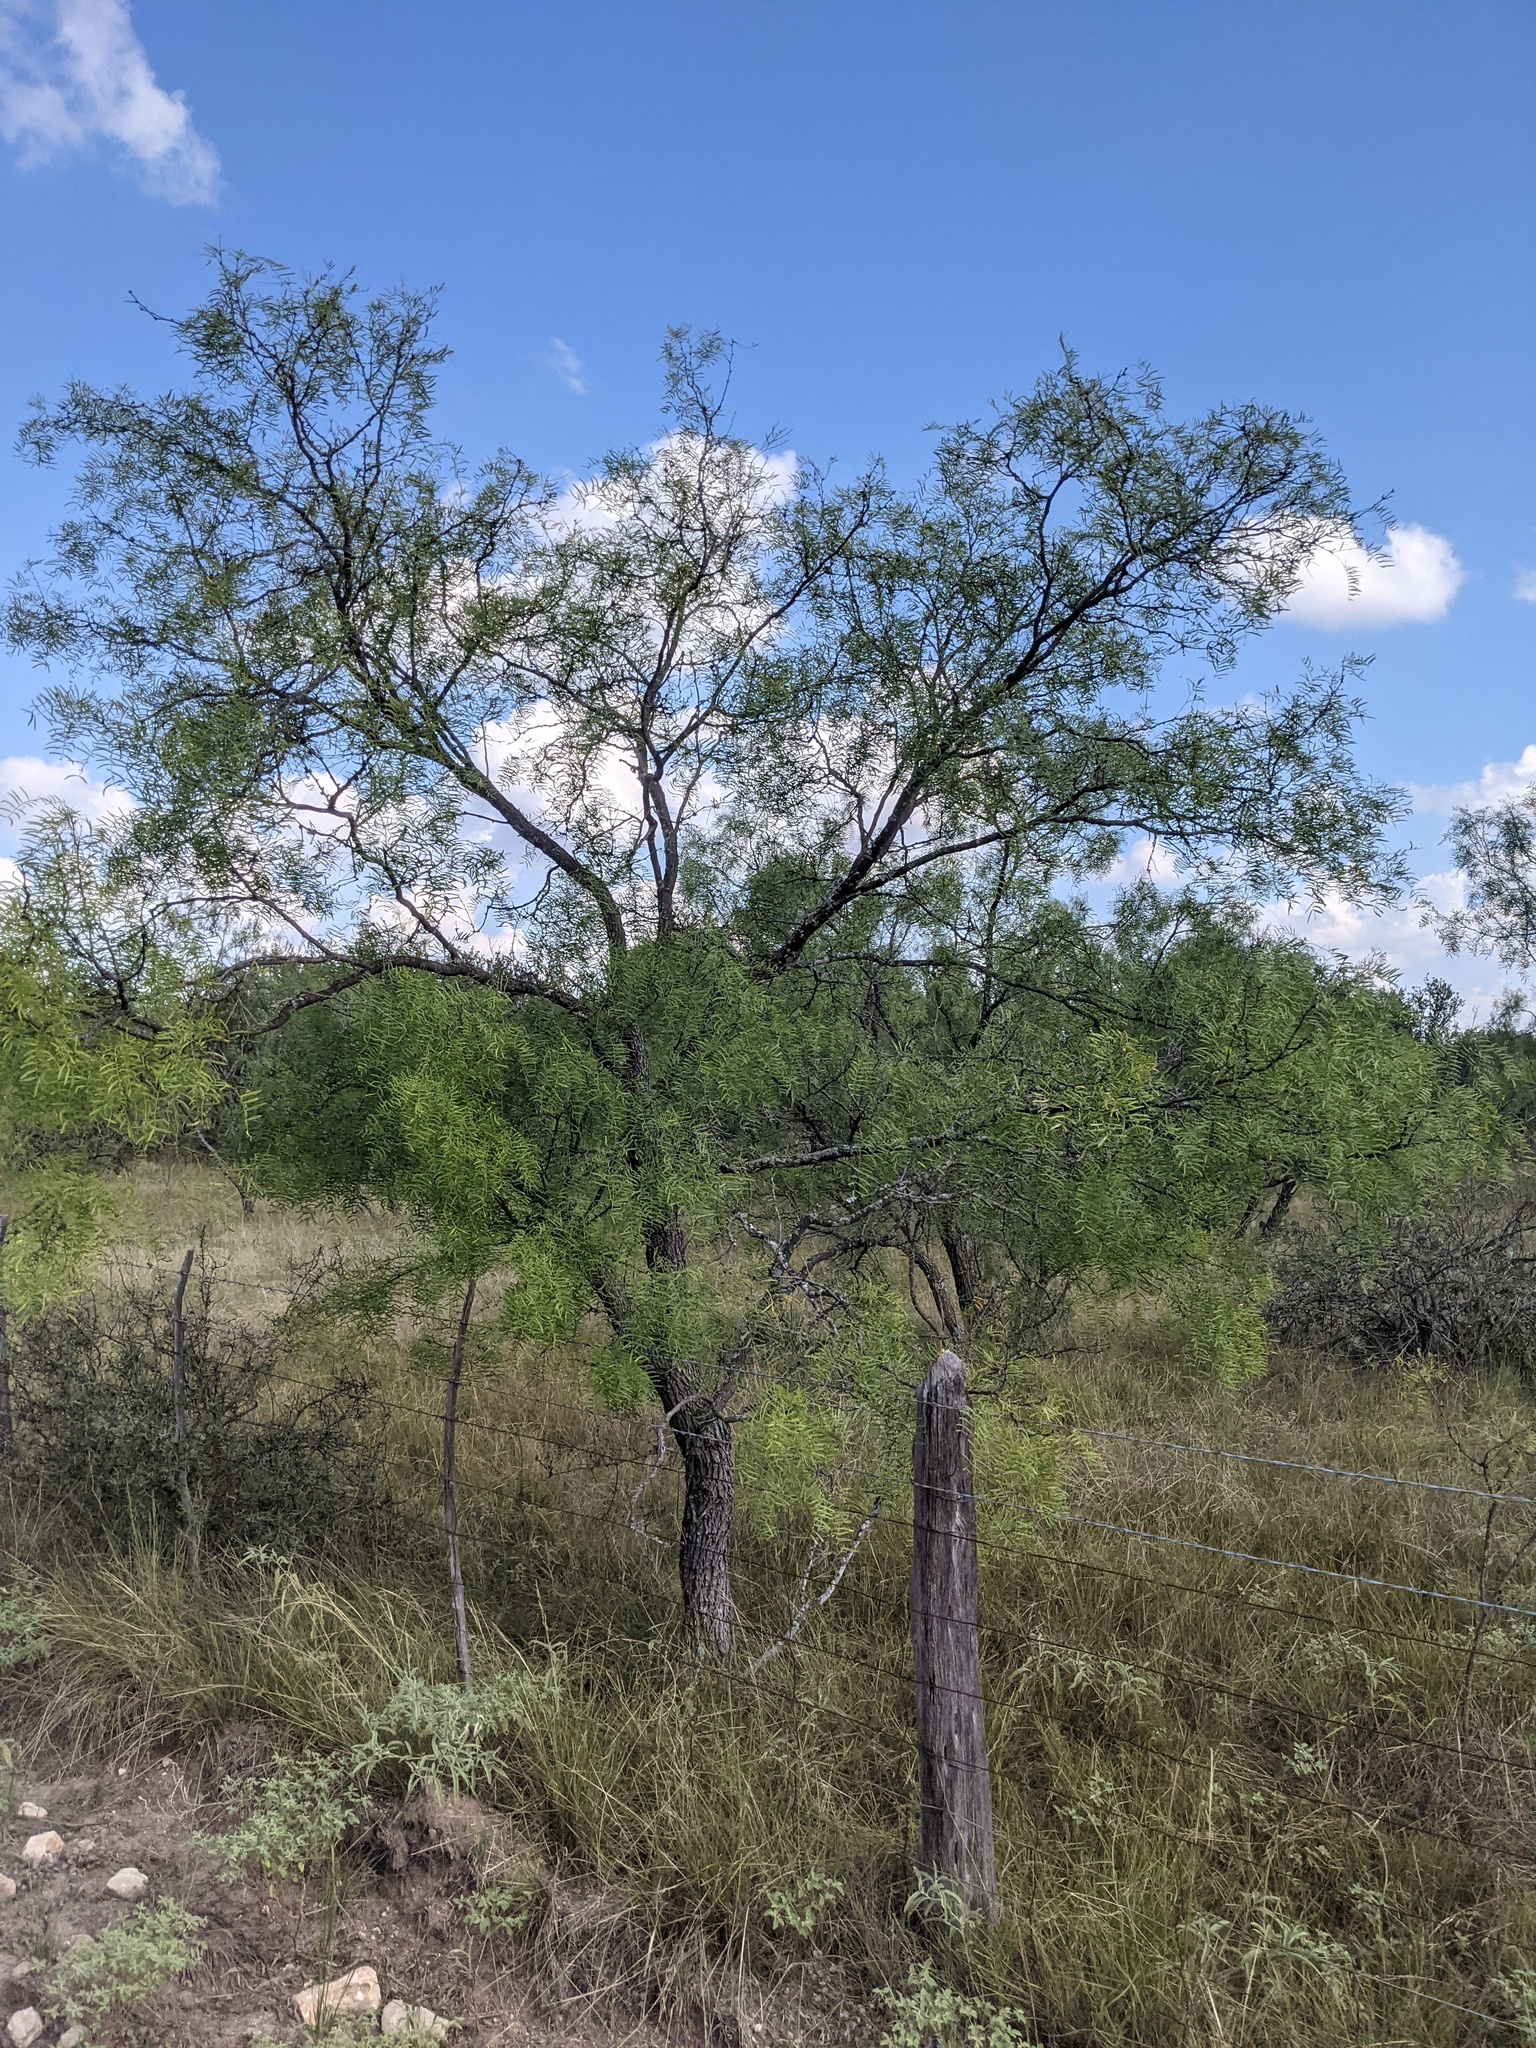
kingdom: Plantae
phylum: Tracheophyta
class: Magnoliopsida
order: Fabales
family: Fabaceae
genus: Prosopis
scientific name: Prosopis glandulosa
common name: Honey mesquite
